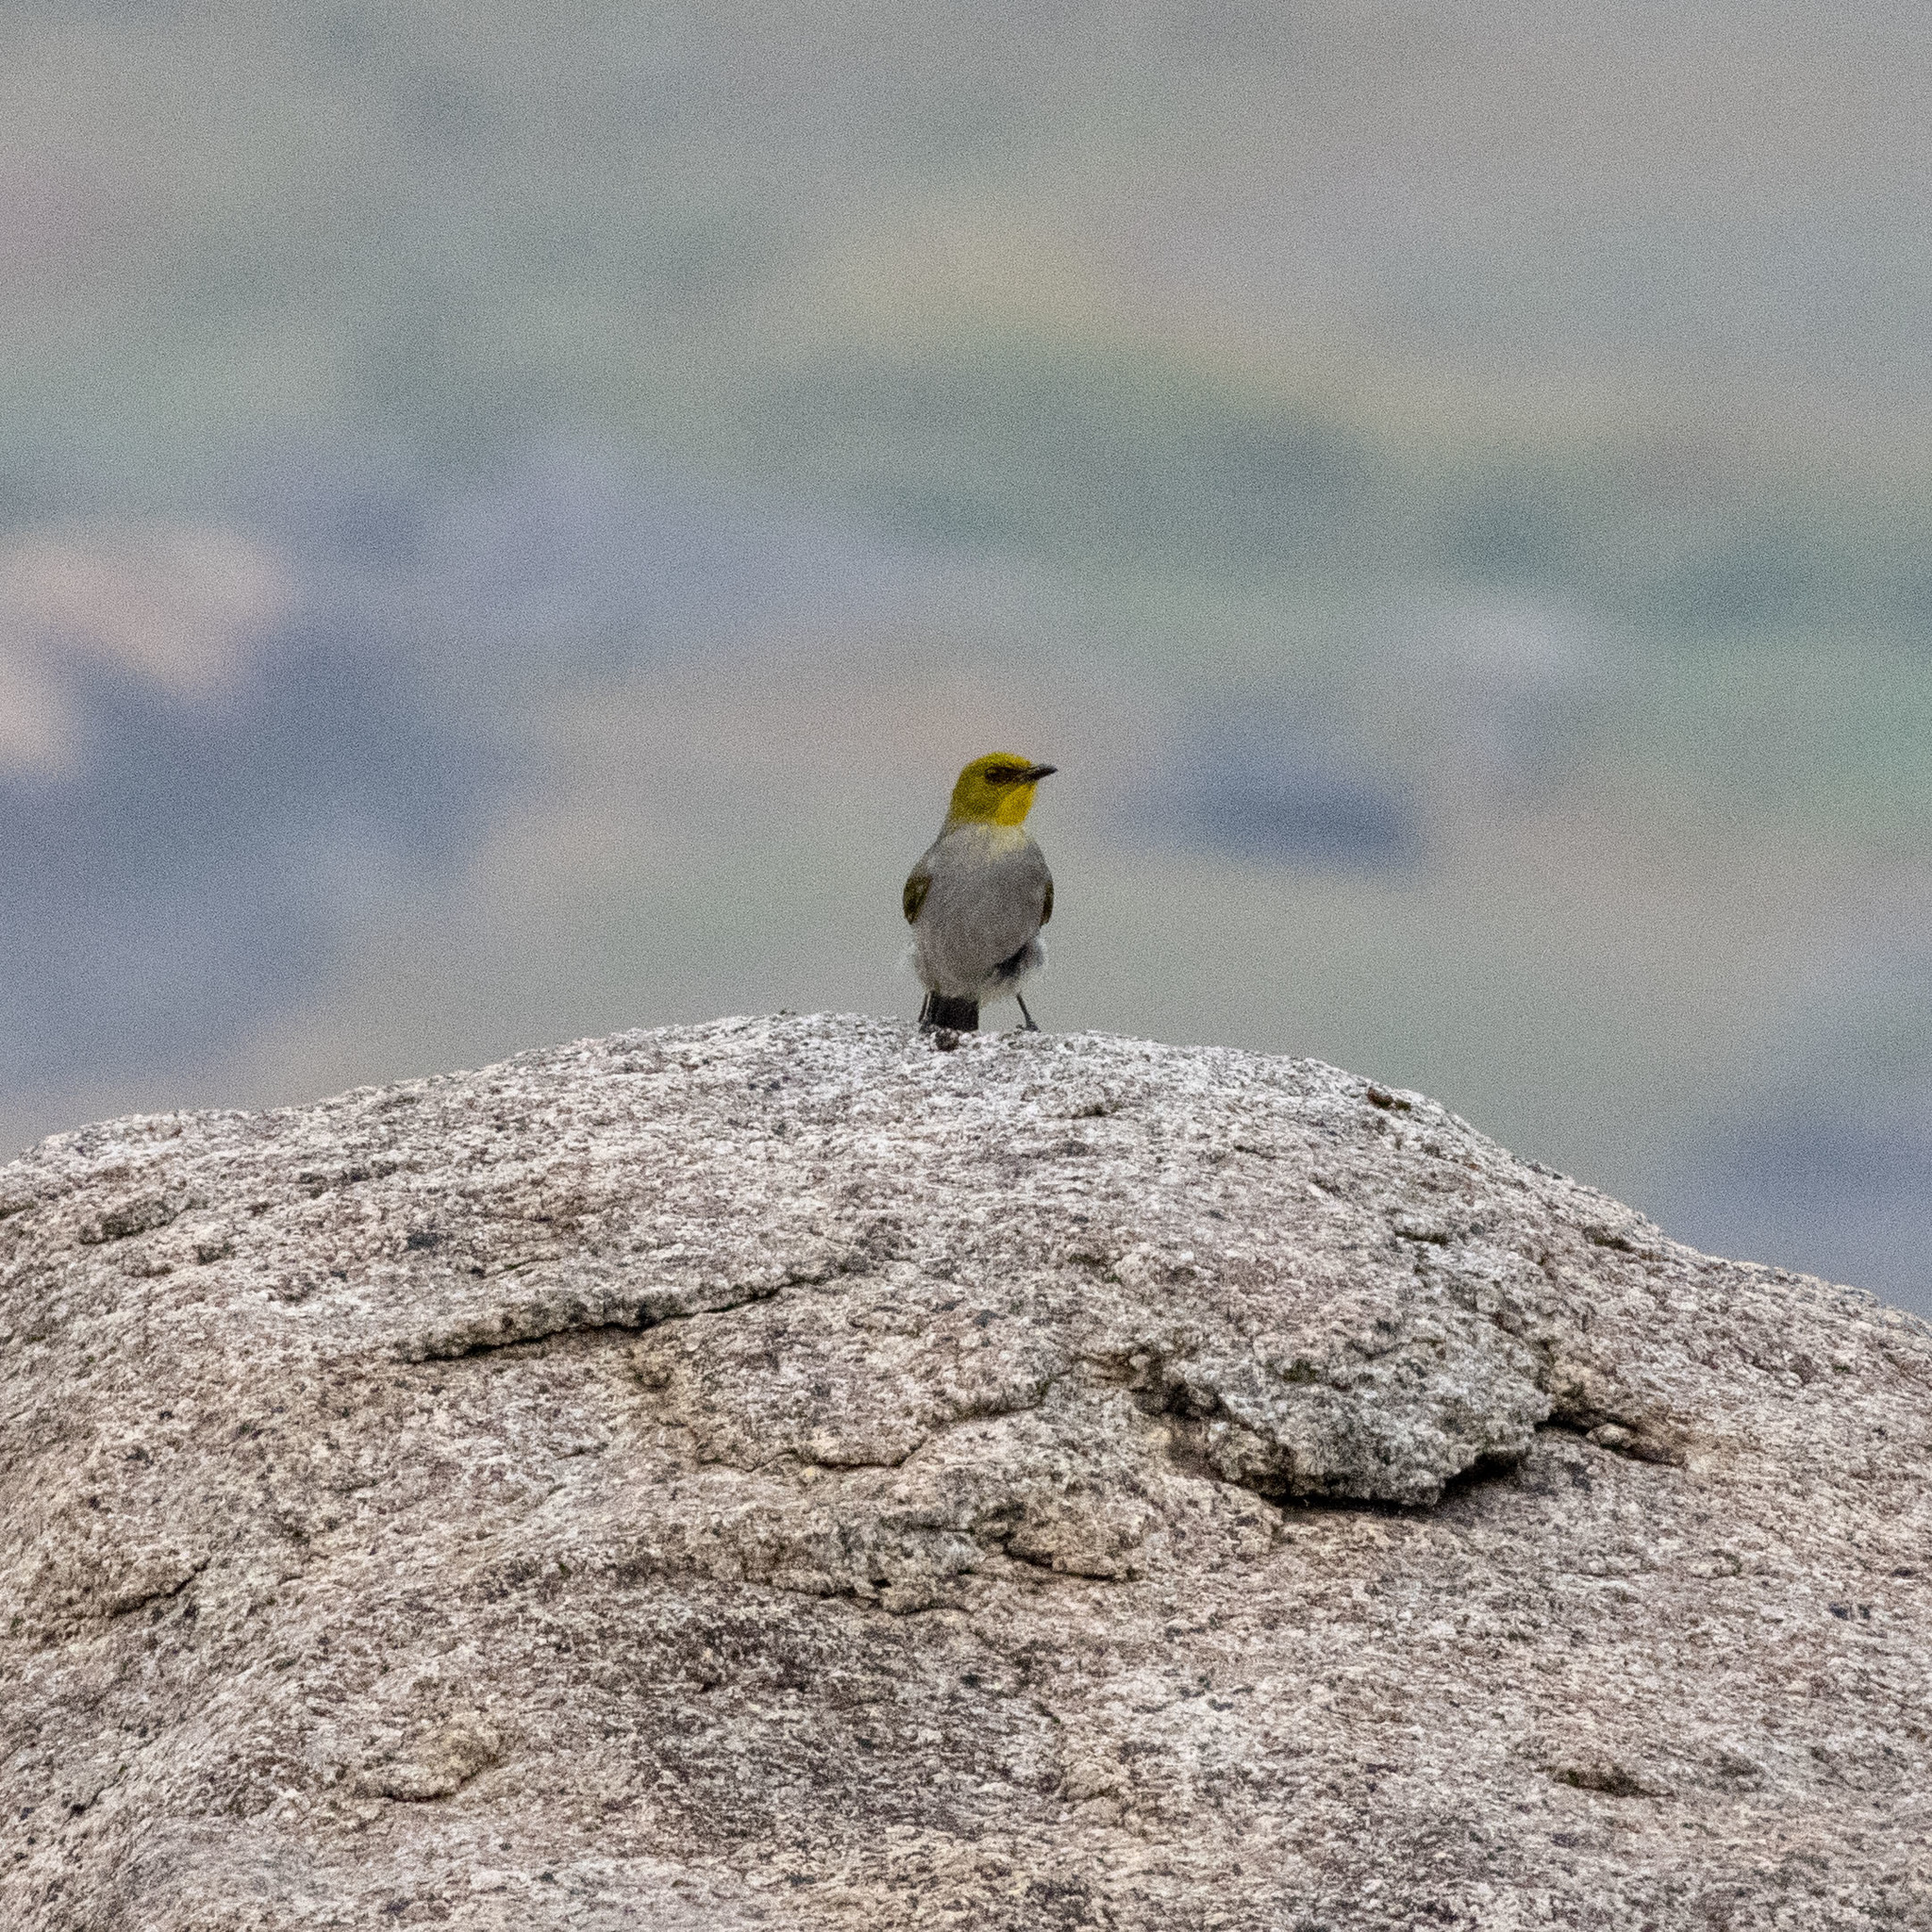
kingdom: Animalia
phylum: Chordata
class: Aves
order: Passeriformes
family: Pycnonotidae
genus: Pycnonotus
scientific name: Pycnonotus xantholaemus
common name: Yellow-throated bulbul
